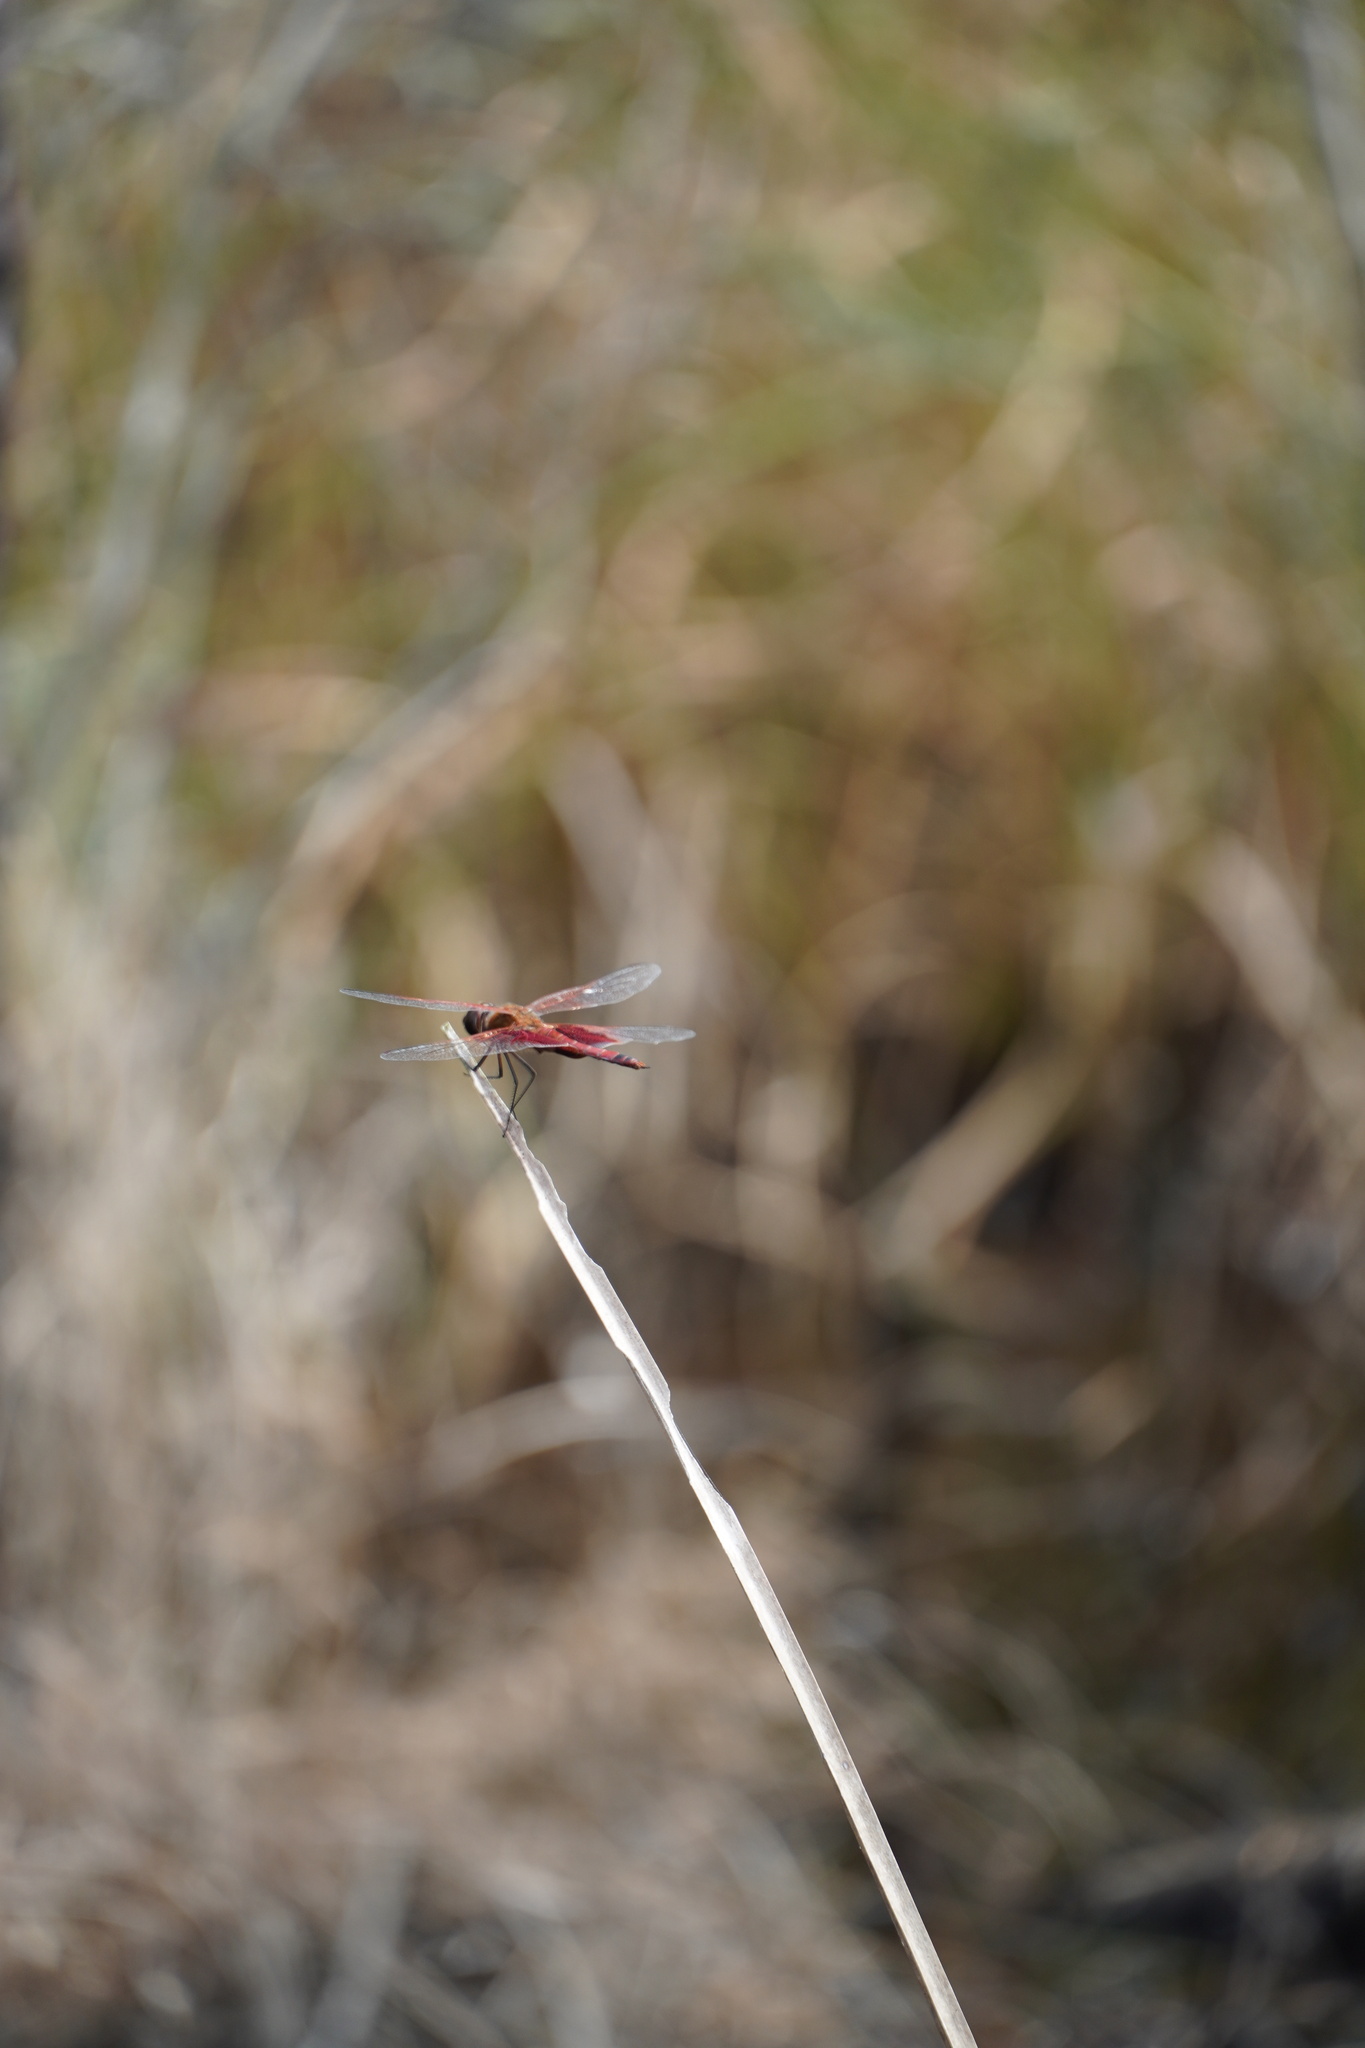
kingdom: Animalia
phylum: Arthropoda
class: Insecta
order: Odonata
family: Libellulidae
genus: Tramea
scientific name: Tramea carolina
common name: Carolina saddlebags
